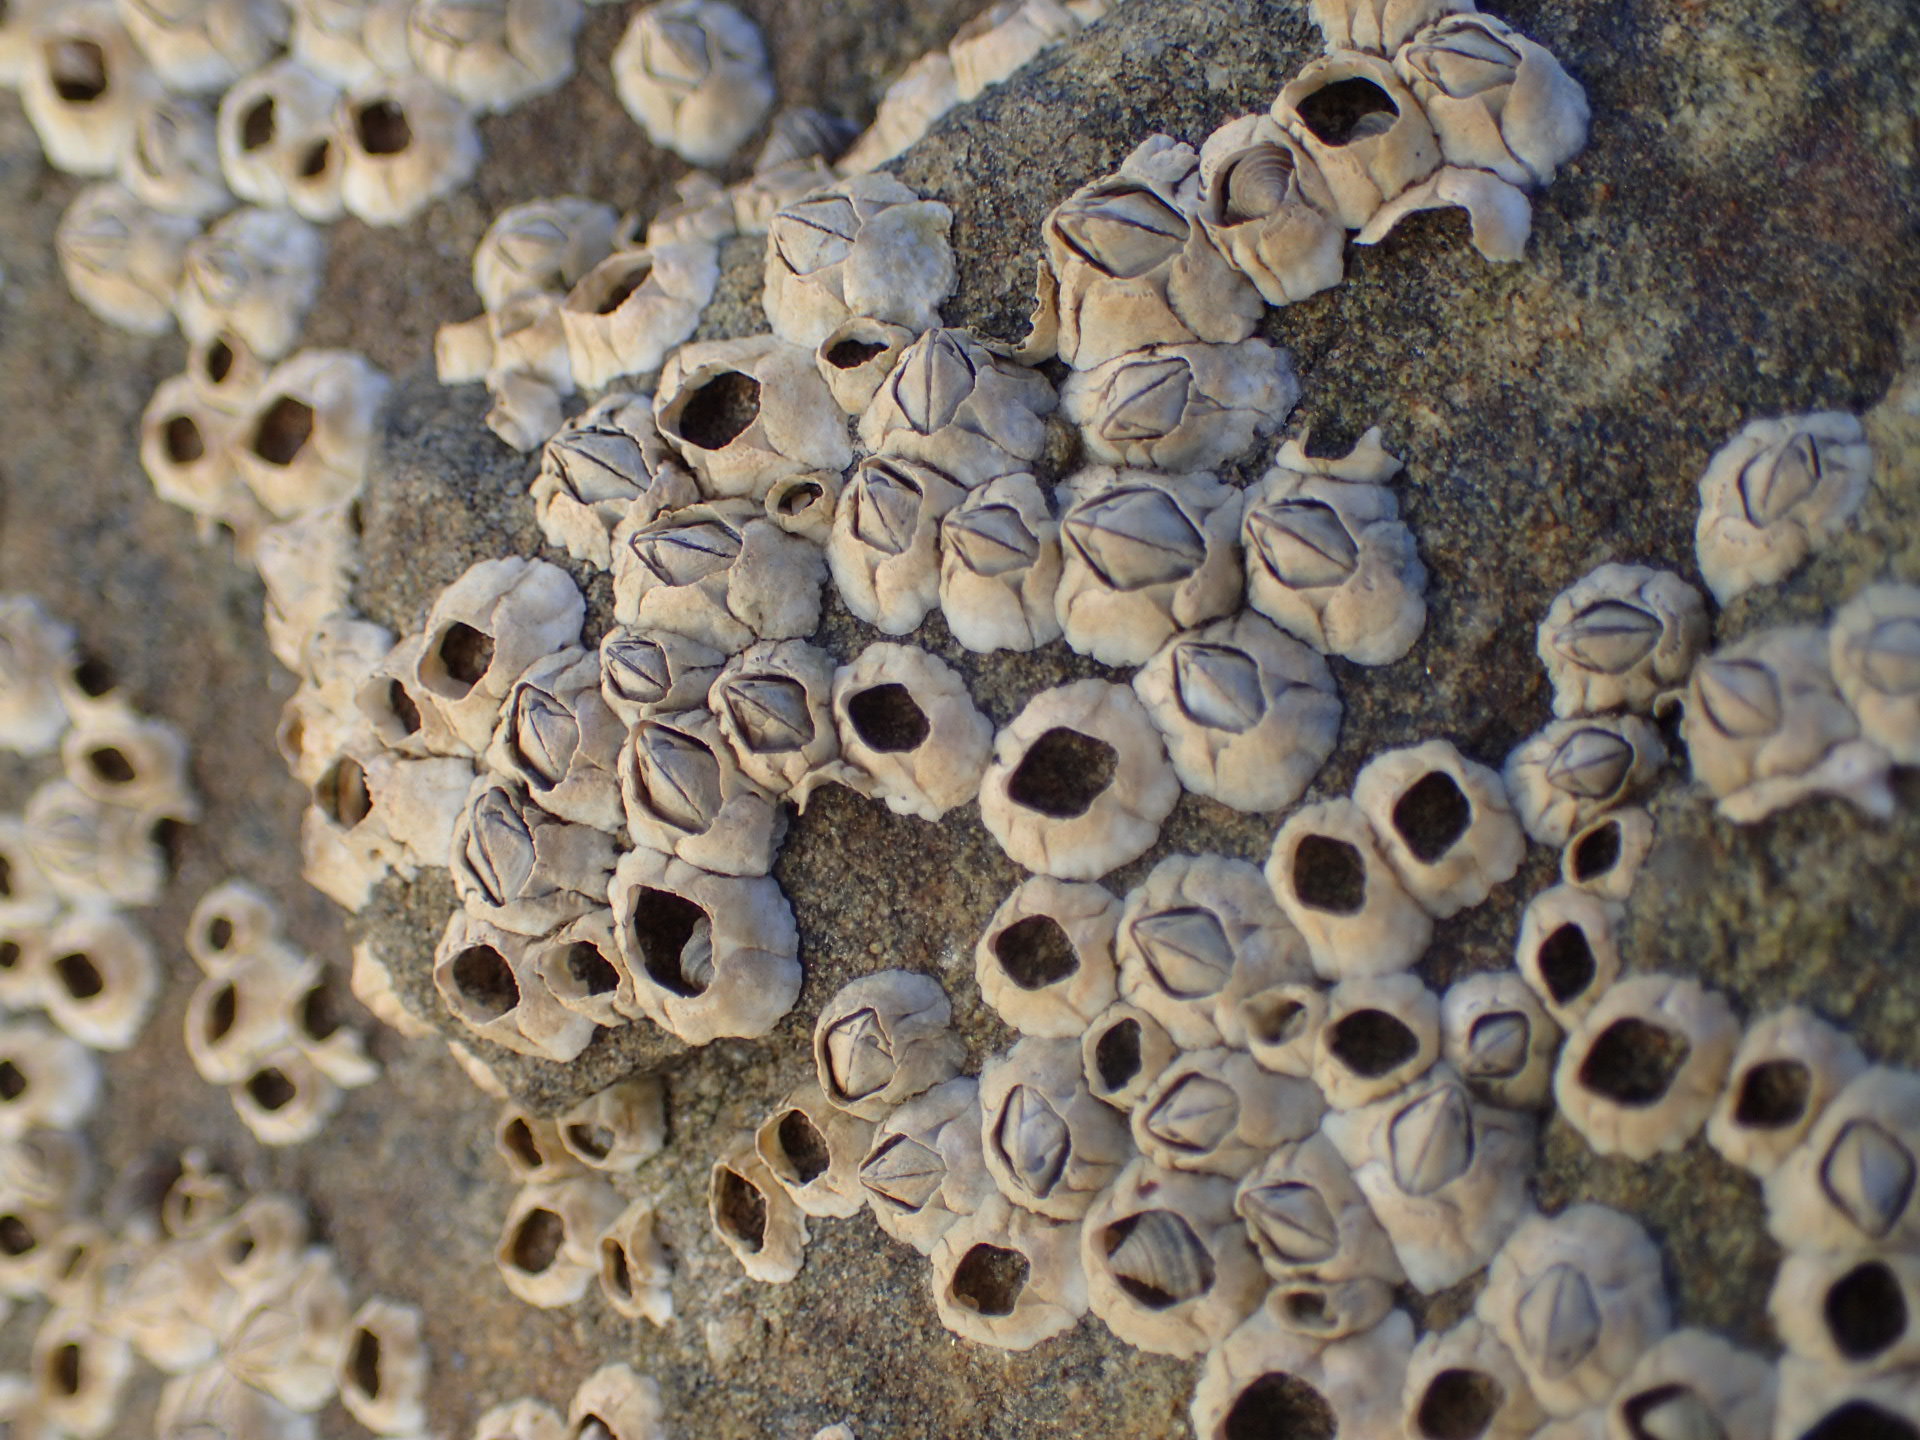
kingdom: Animalia
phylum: Arthropoda
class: Maxillopoda
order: Sessilia
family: Archaeobalanidae
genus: Semibalanus
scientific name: Semibalanus balanoides
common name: Acorn barnacle
